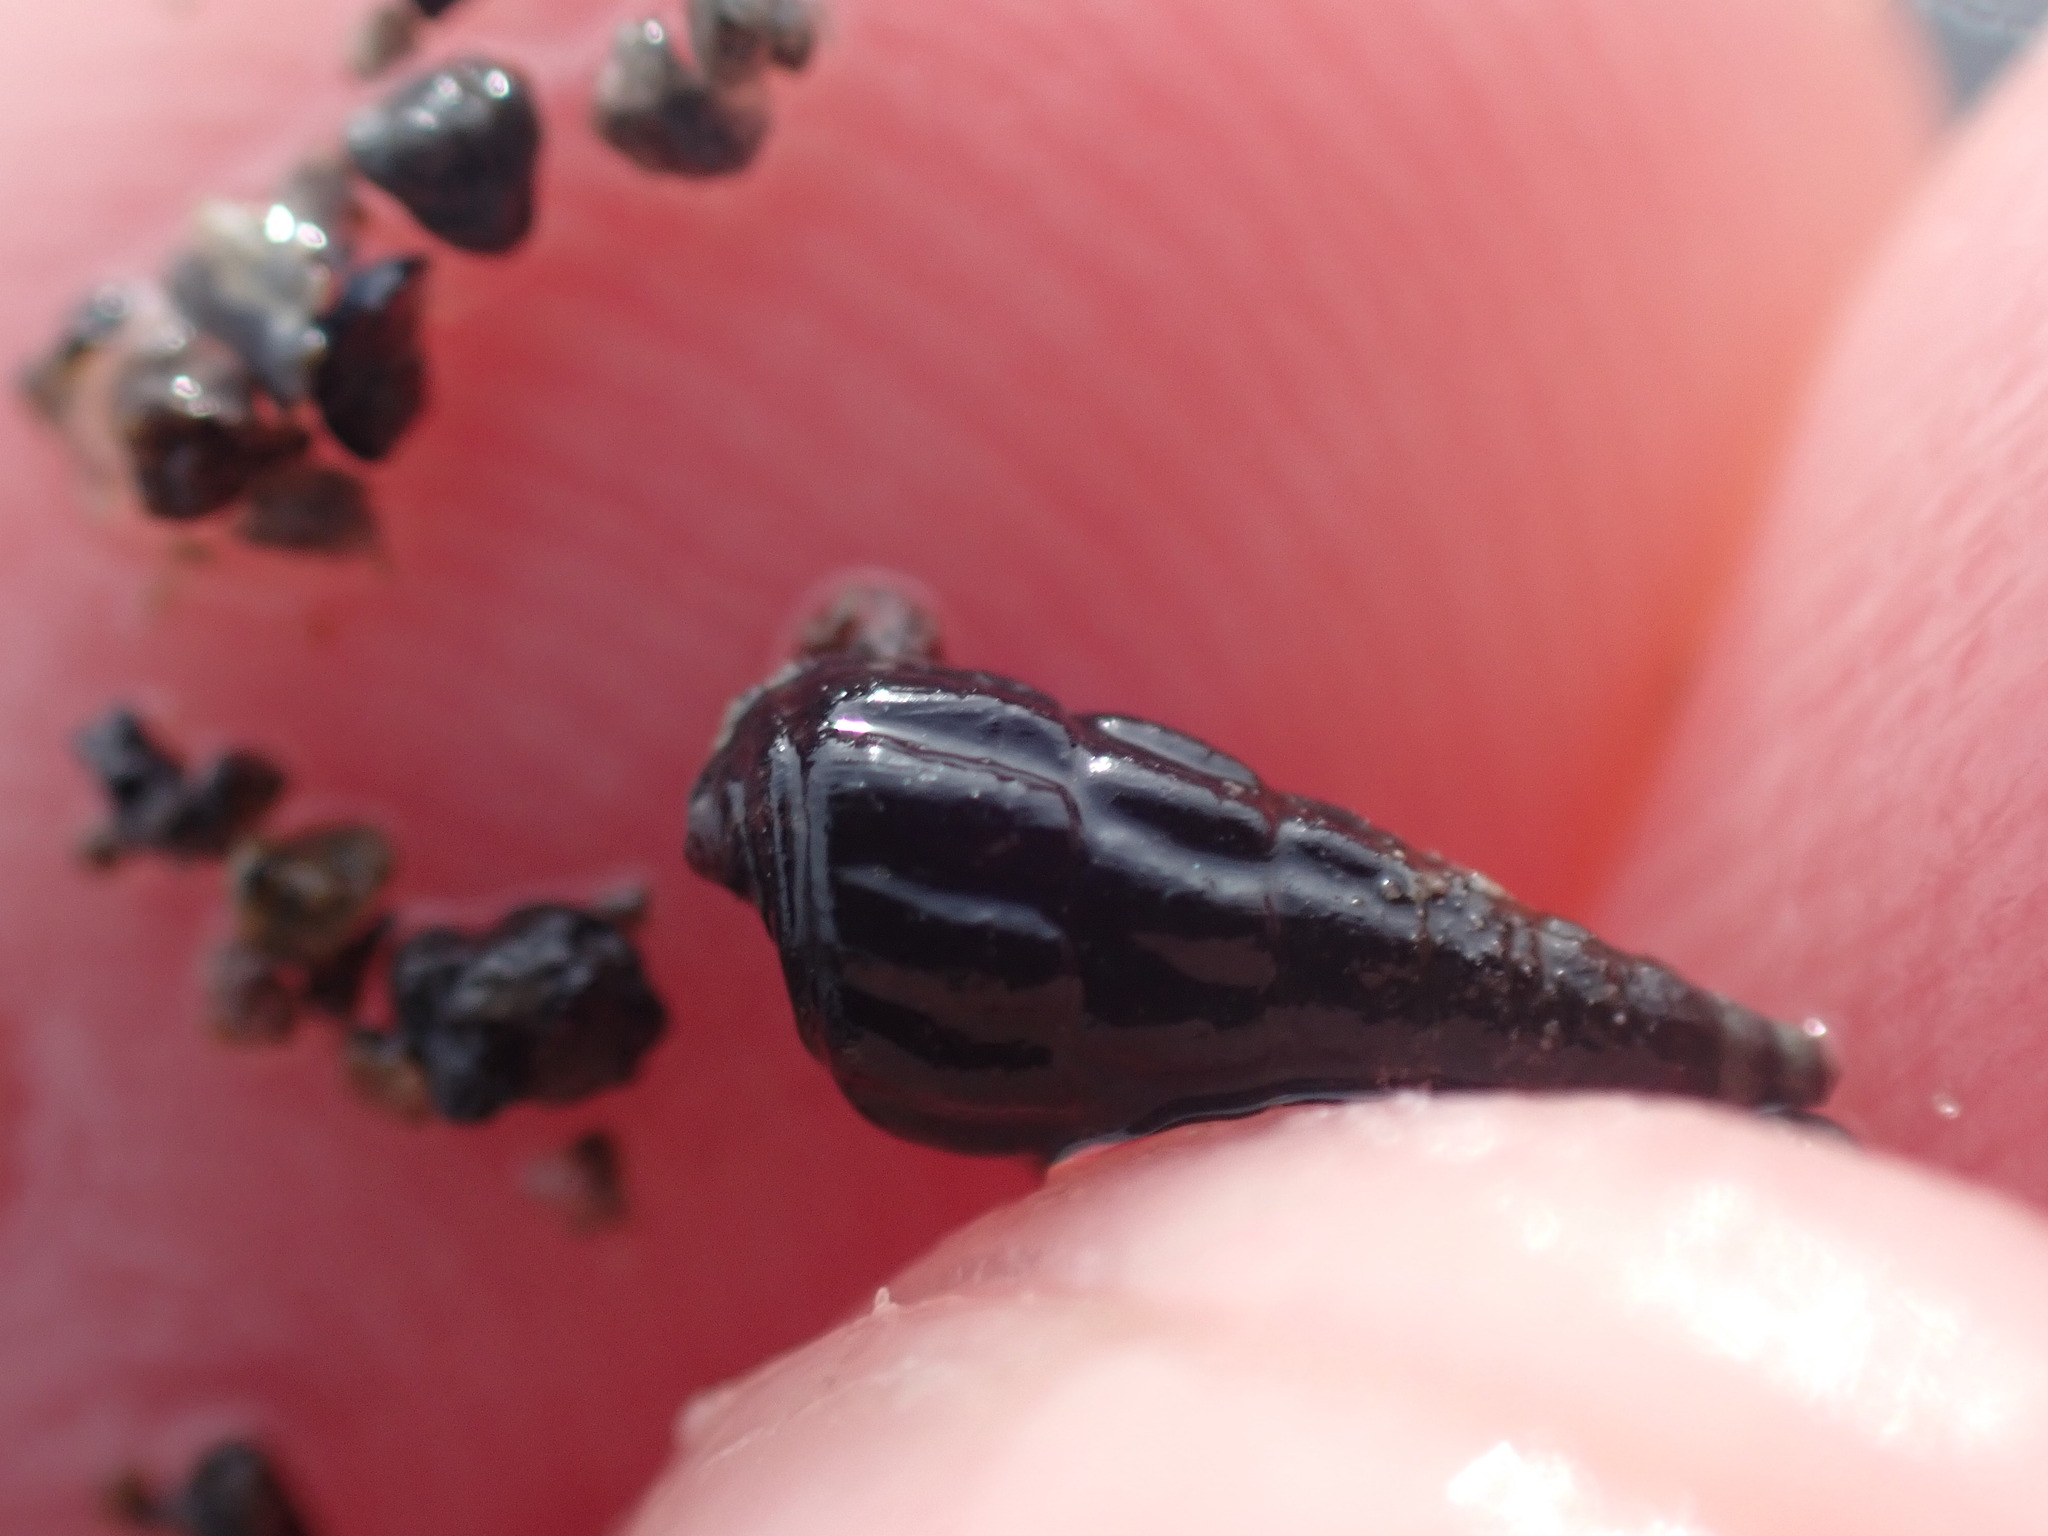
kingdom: Animalia
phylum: Mollusca
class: Gastropoda
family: Batillariidae
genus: Zeacumantus
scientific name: Zeacumantus subcarinatus
